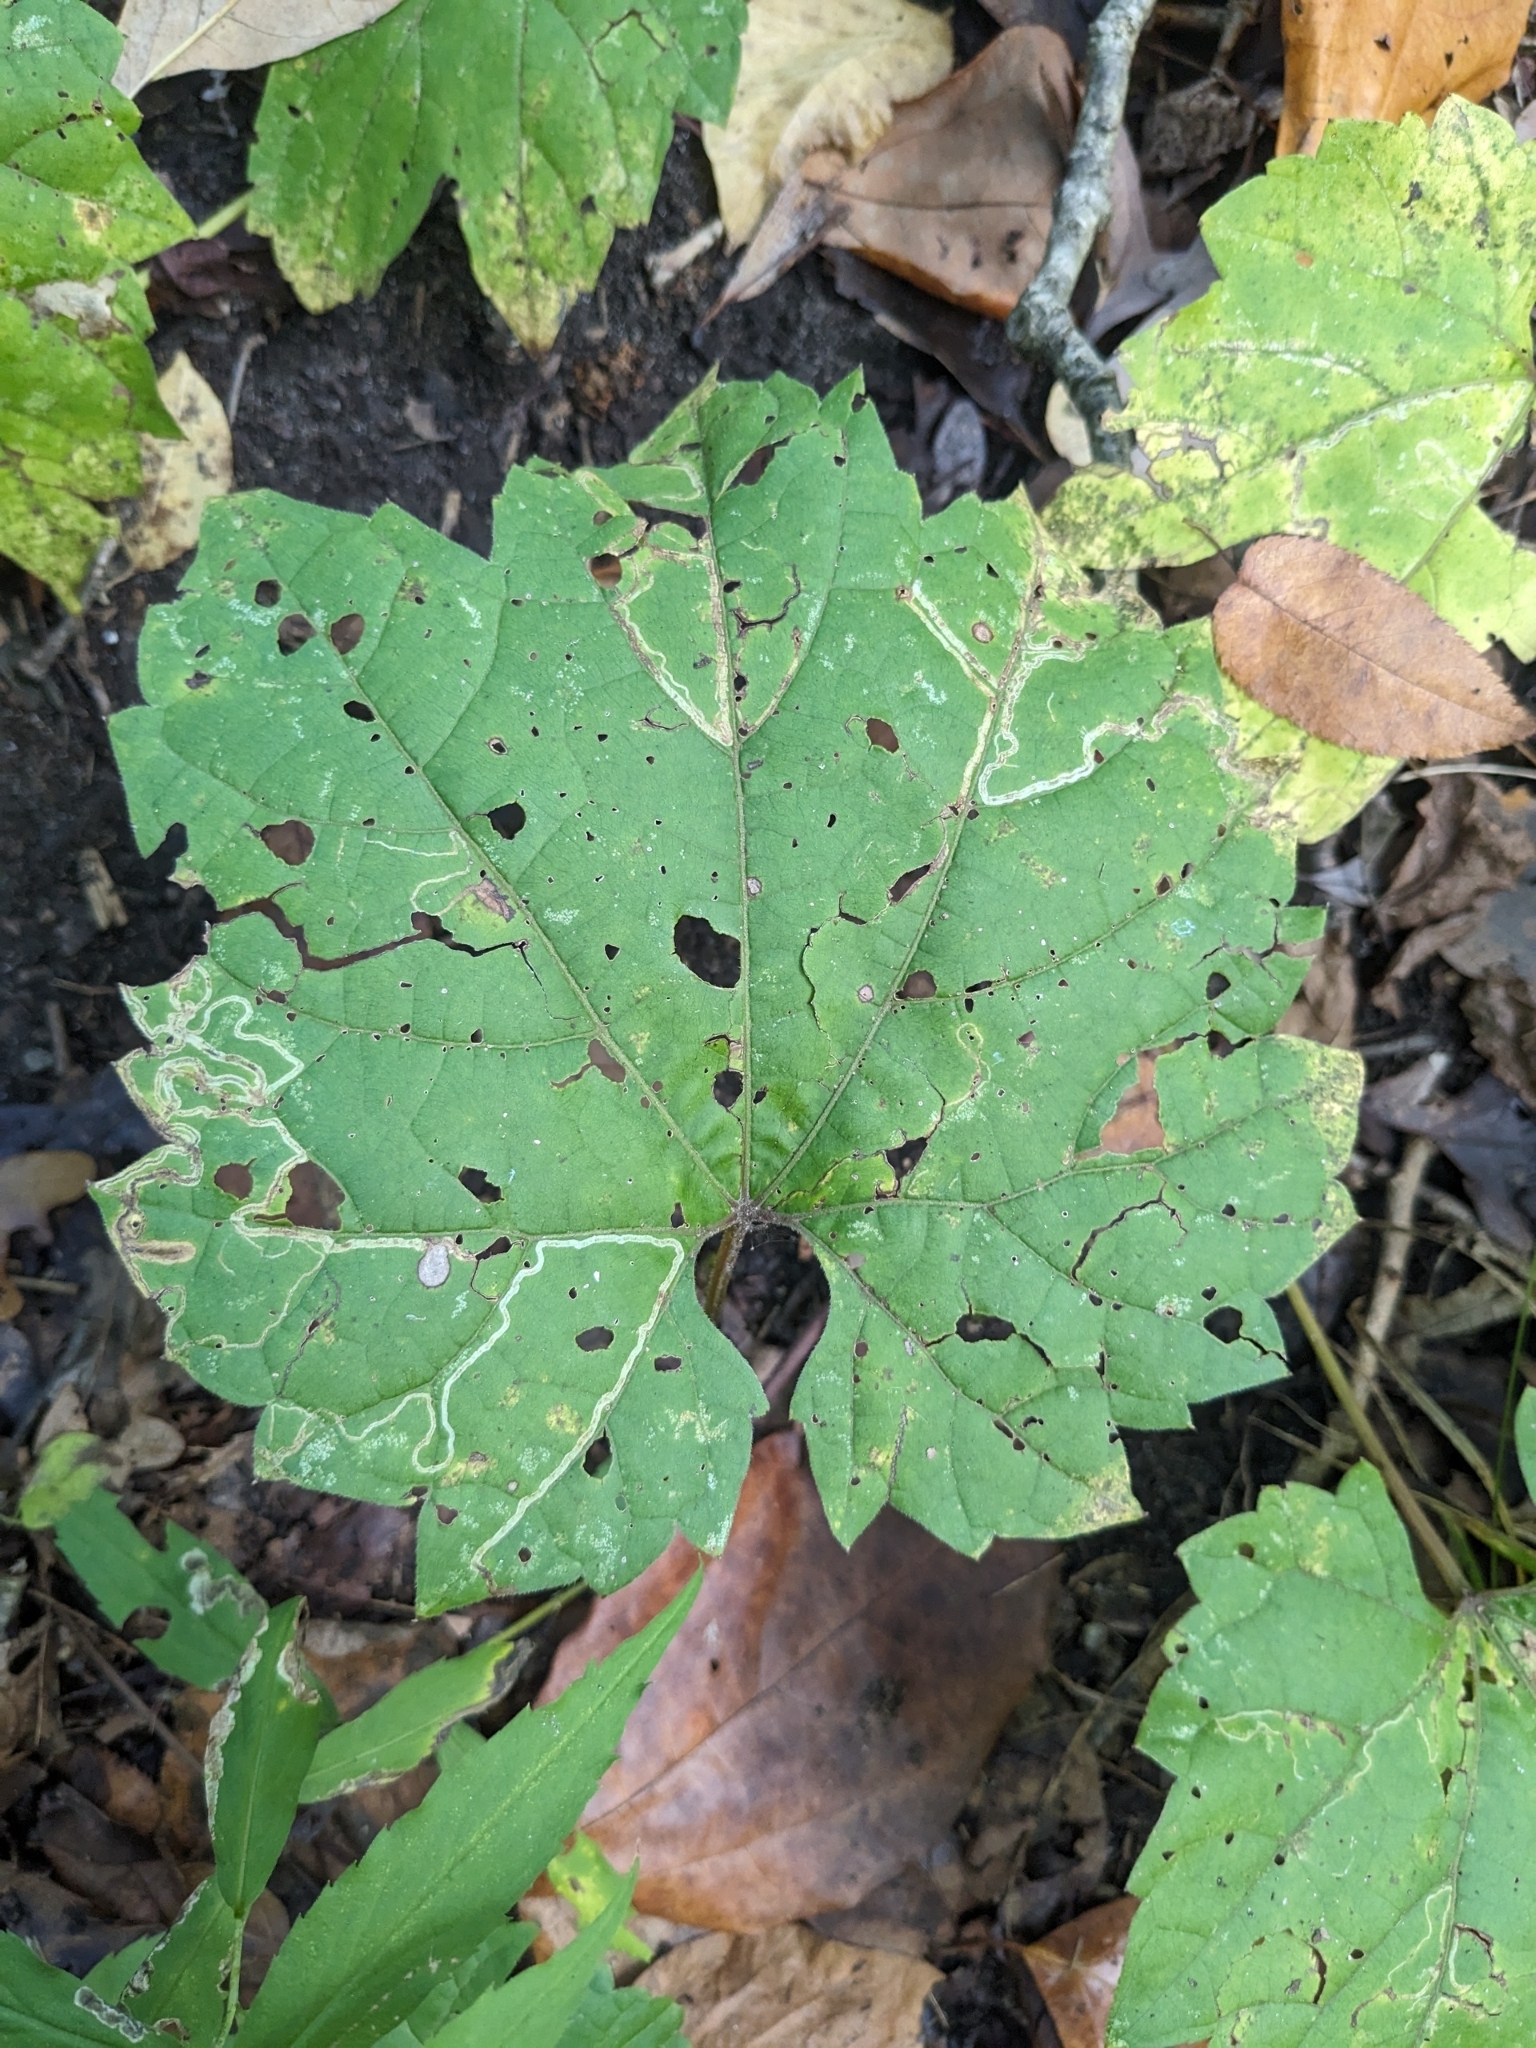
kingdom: Animalia
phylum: Arthropoda
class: Insecta
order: Lepidoptera
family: Gracillariidae
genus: Phyllocnistis
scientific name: Phyllocnistis vitifoliella
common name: Grape leaf-miner moth
